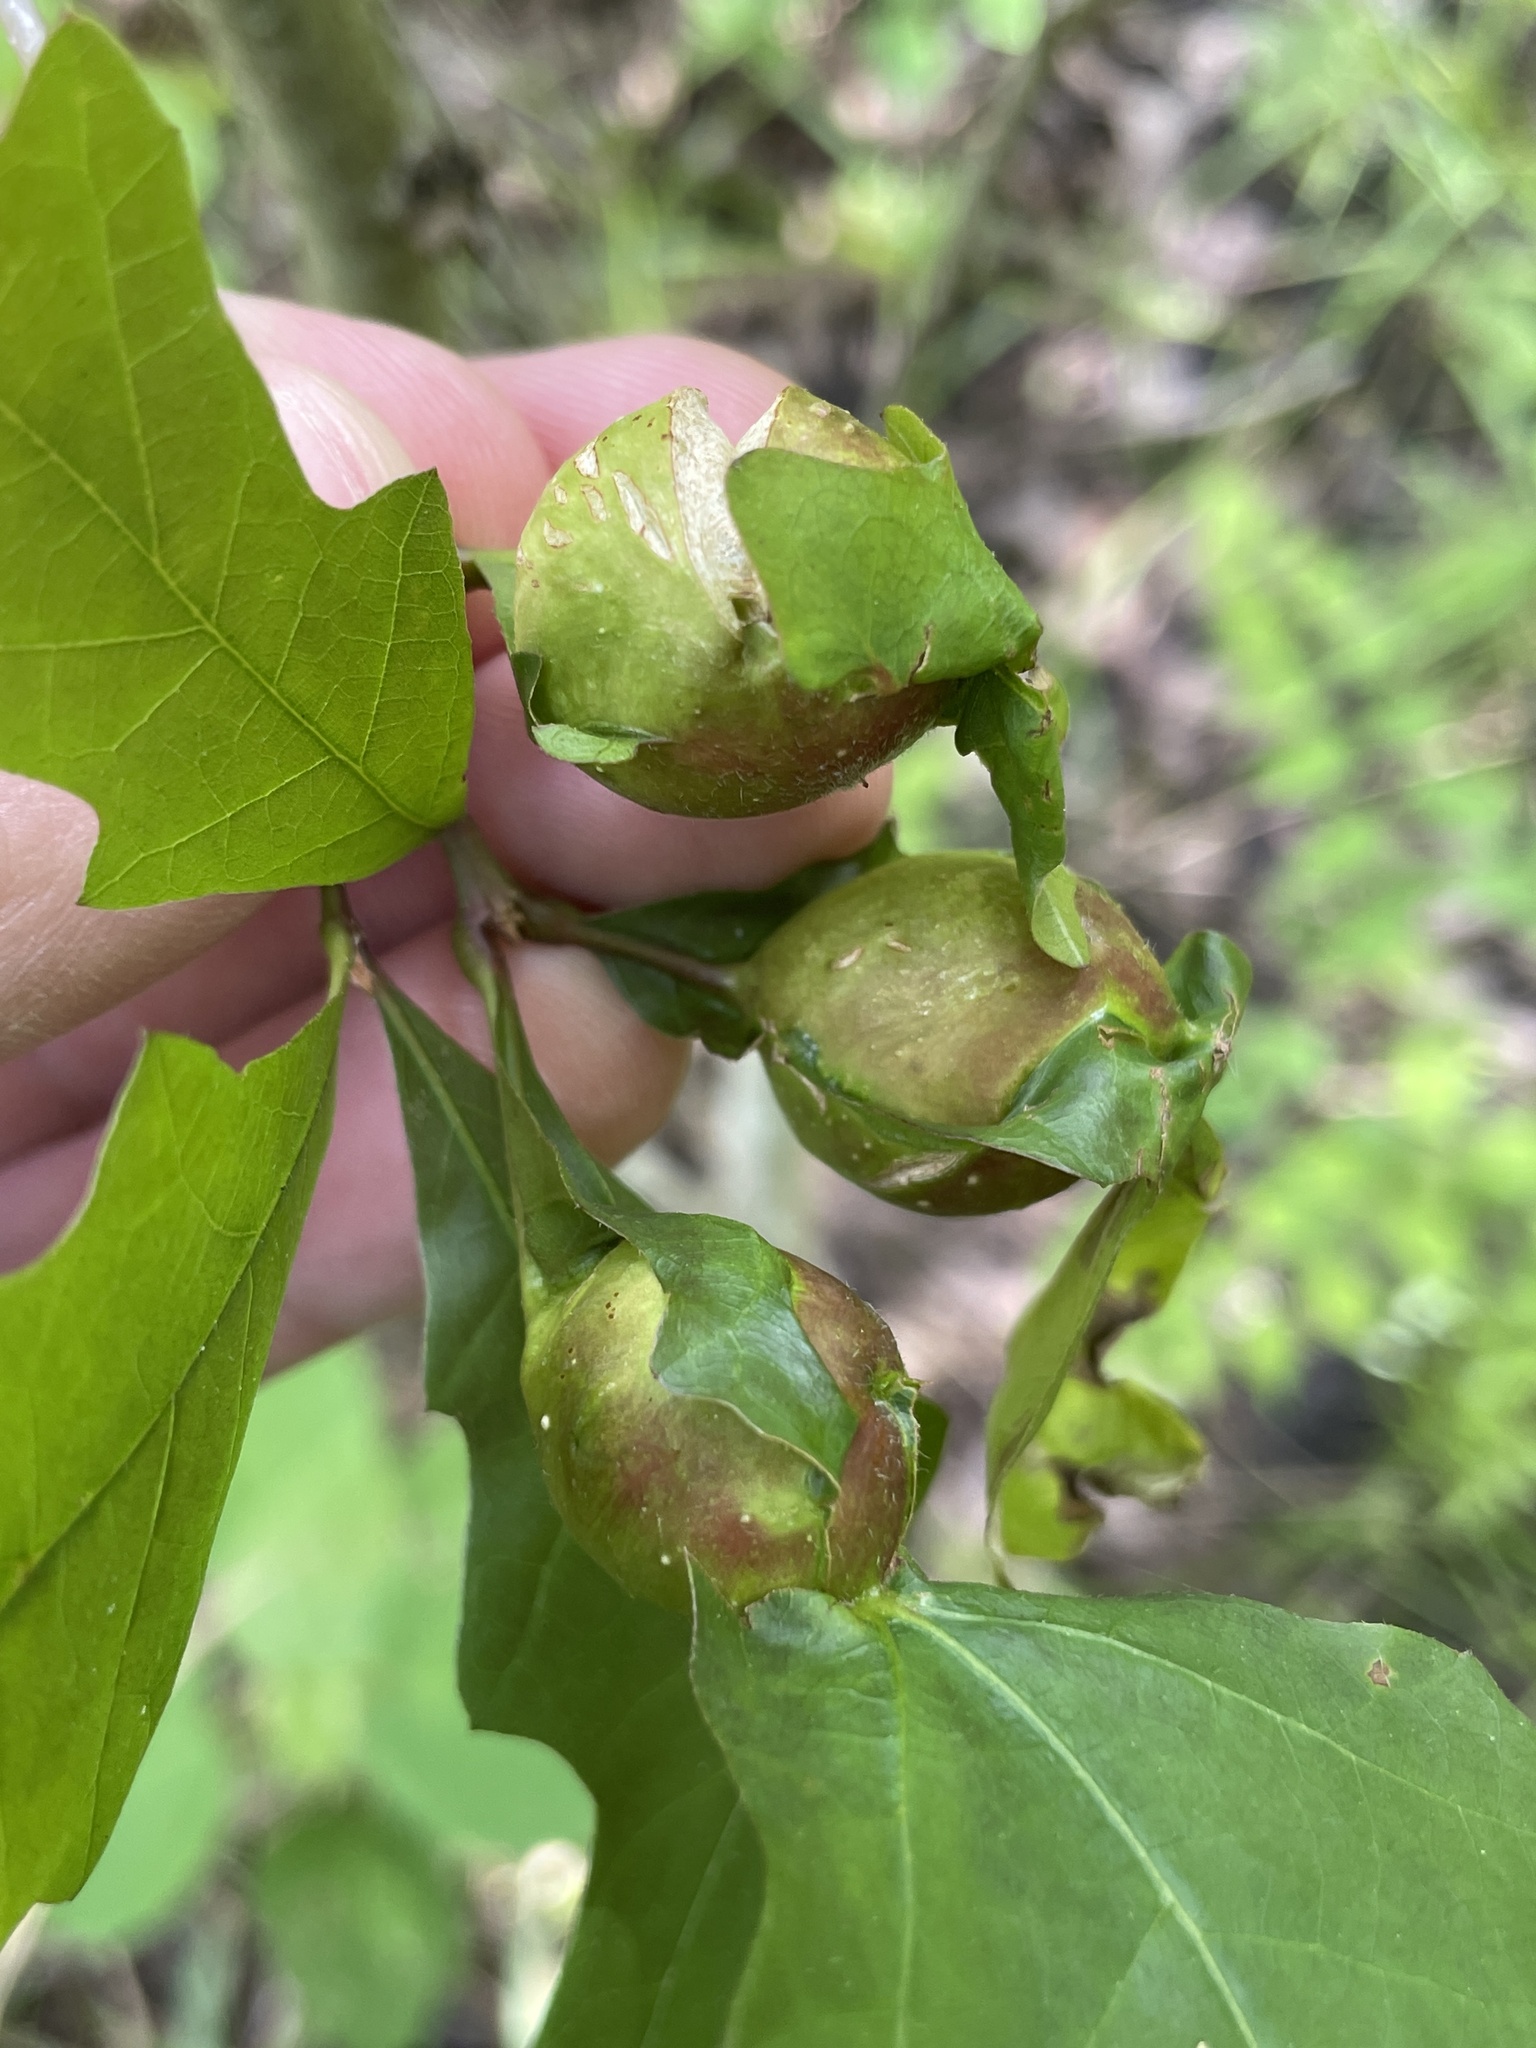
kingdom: Animalia
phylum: Arthropoda
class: Insecta
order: Hymenoptera
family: Cynipidae
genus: Andricus
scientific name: Andricus
